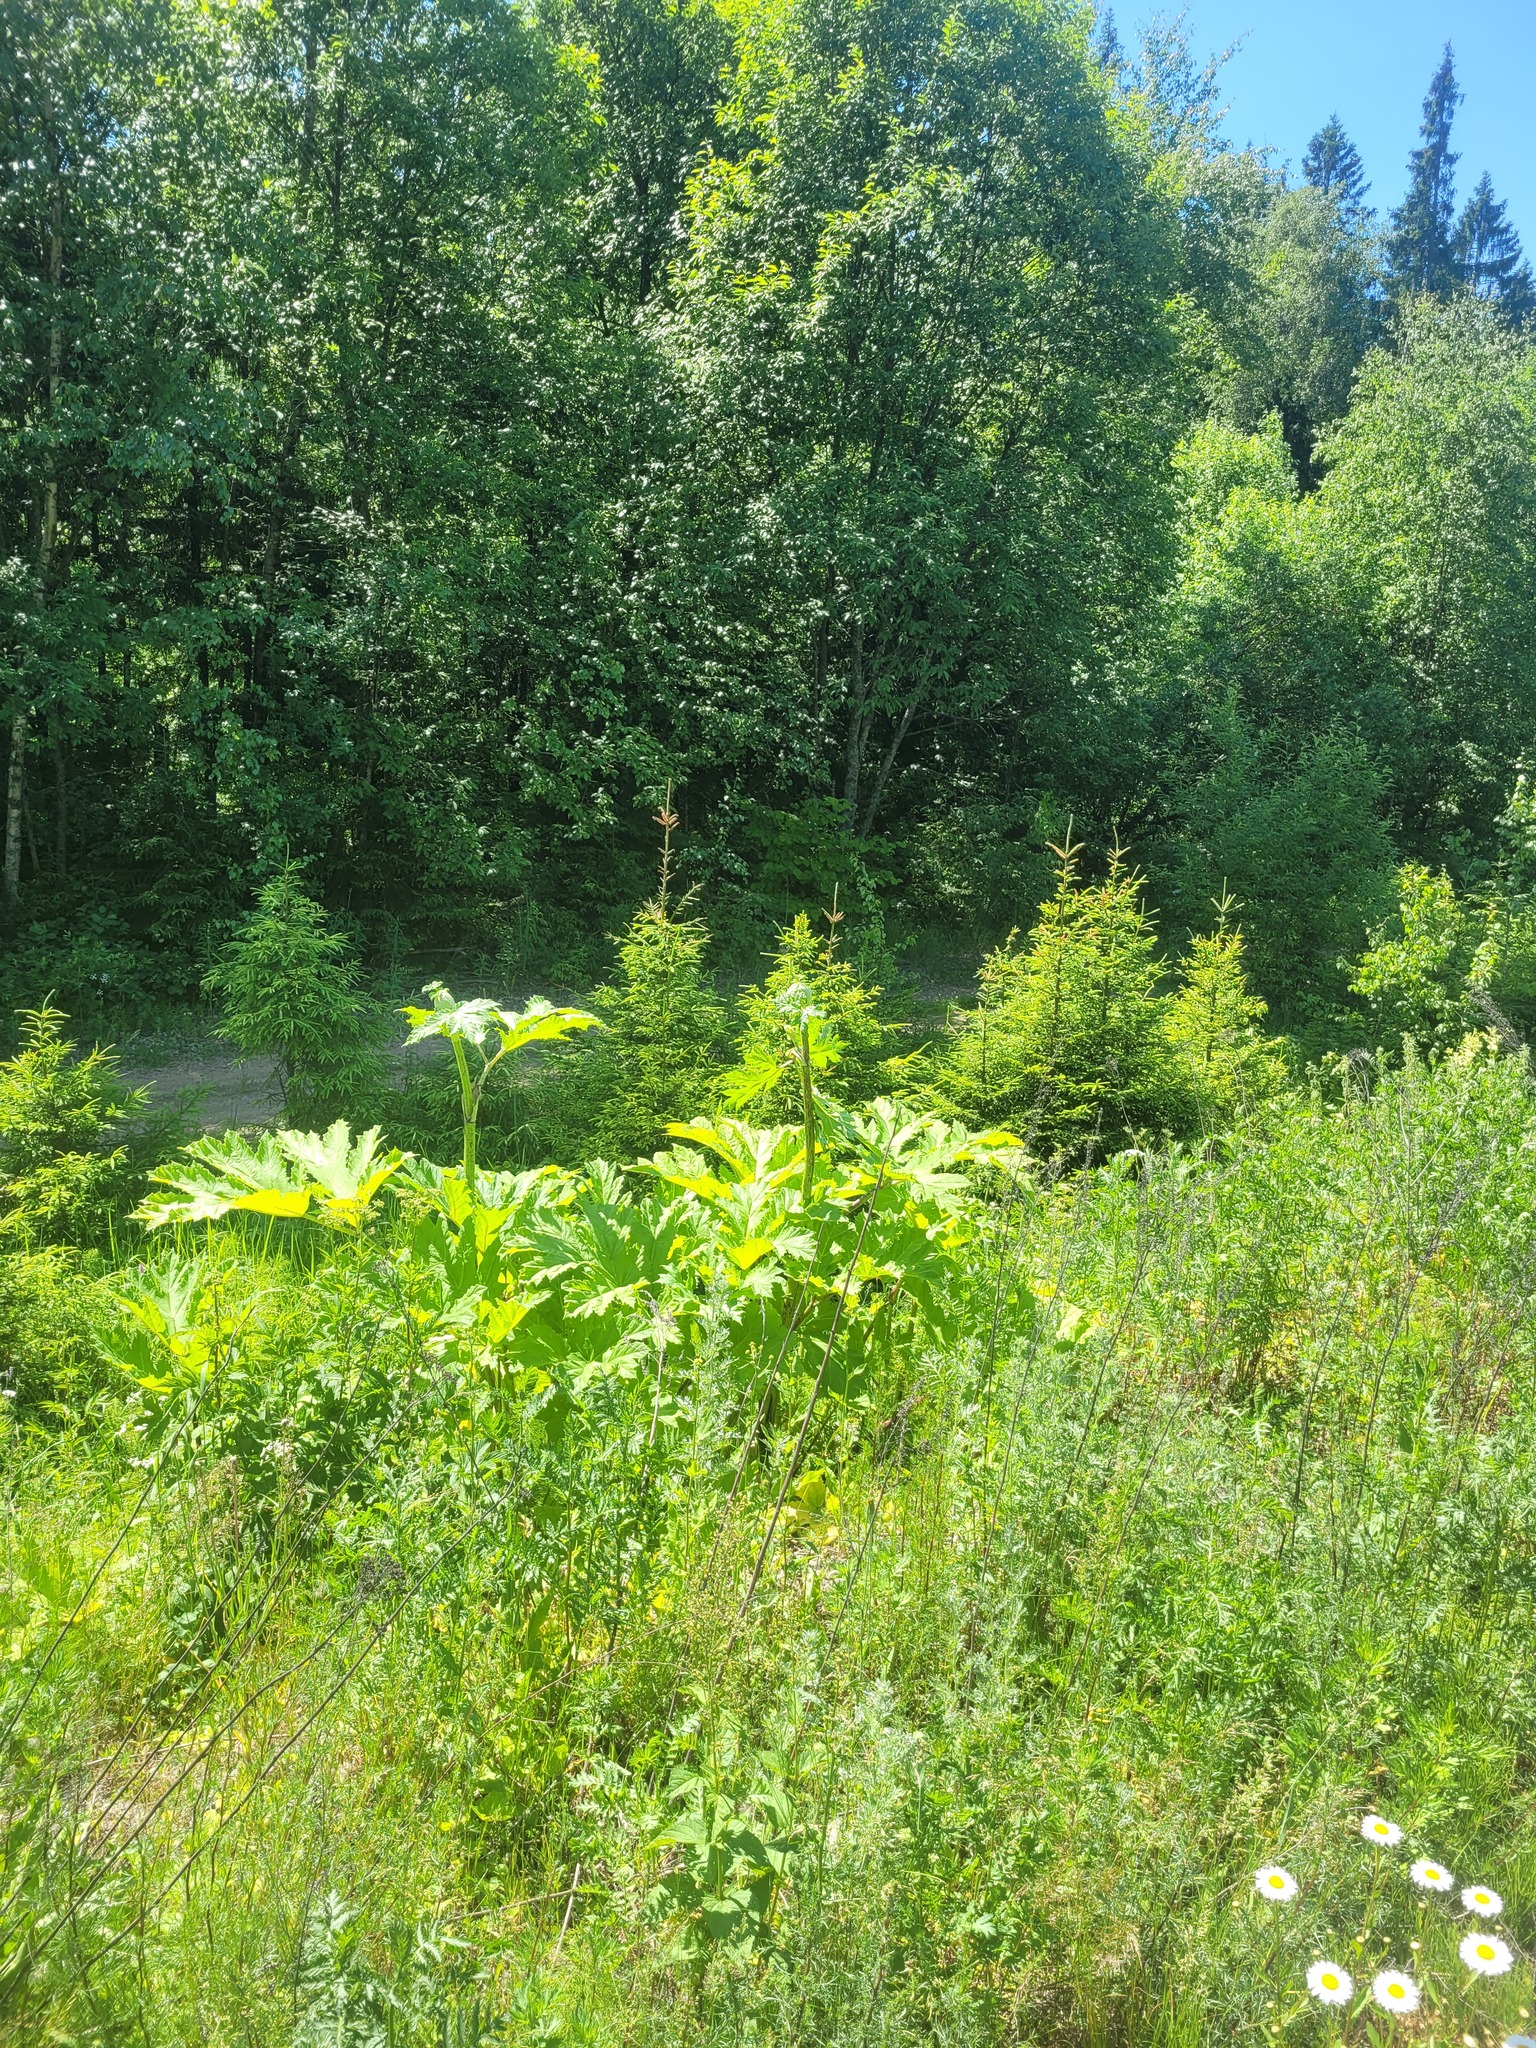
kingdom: Plantae
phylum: Tracheophyta
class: Magnoliopsida
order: Apiales
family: Apiaceae
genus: Heracleum
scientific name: Heracleum sosnowskyi
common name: Sosnowsky's hogweed
